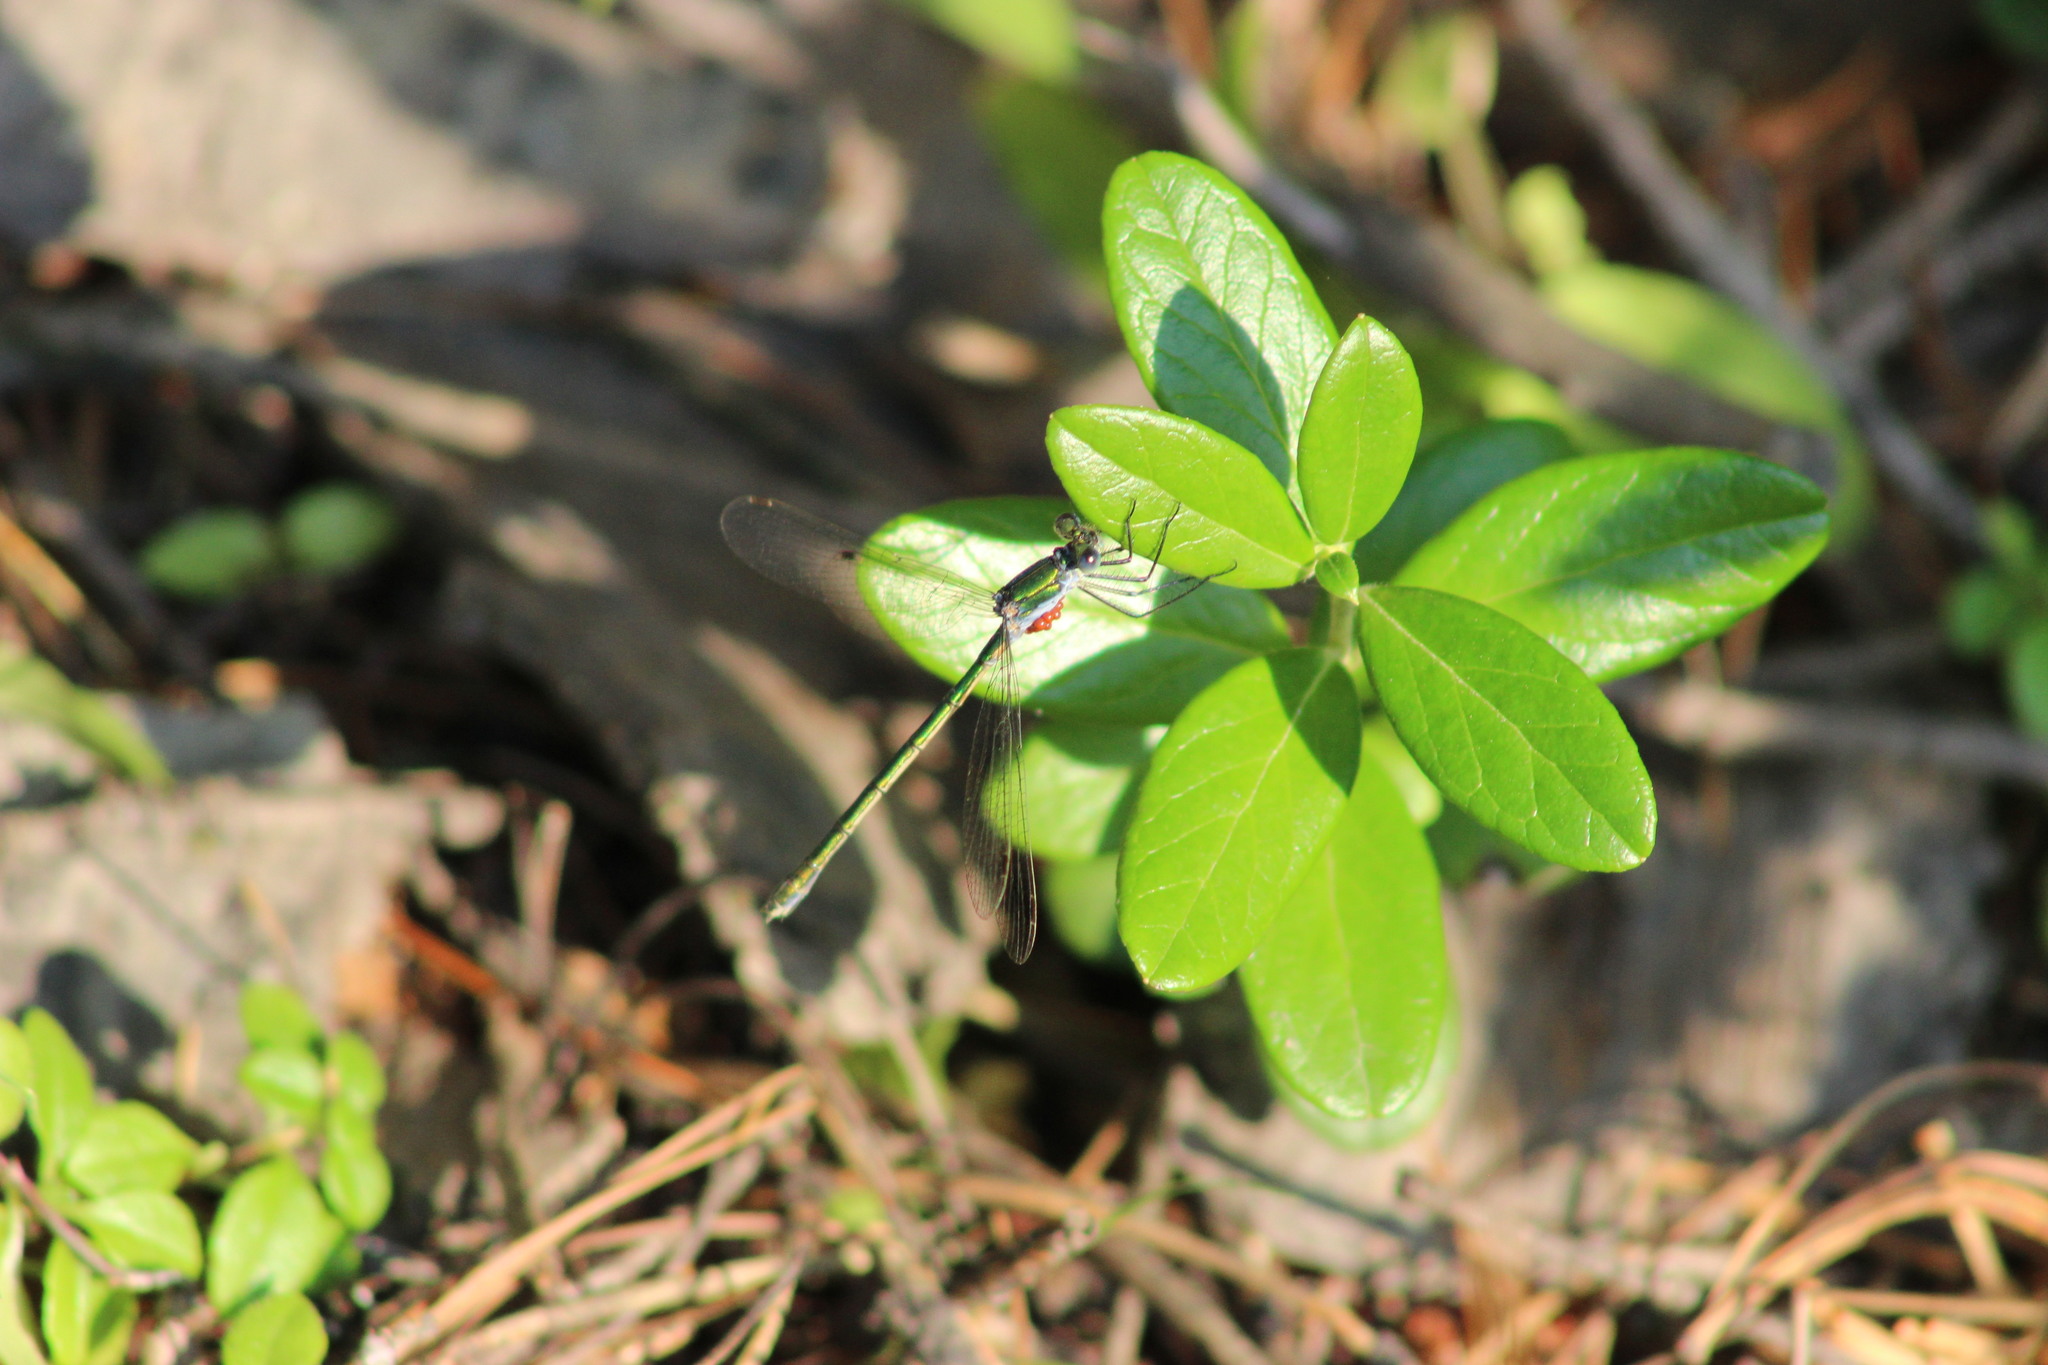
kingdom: Animalia
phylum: Arthropoda
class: Insecta
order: Odonata
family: Lestidae
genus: Lestes
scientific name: Lestes sponsa
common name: Common spreadwing
